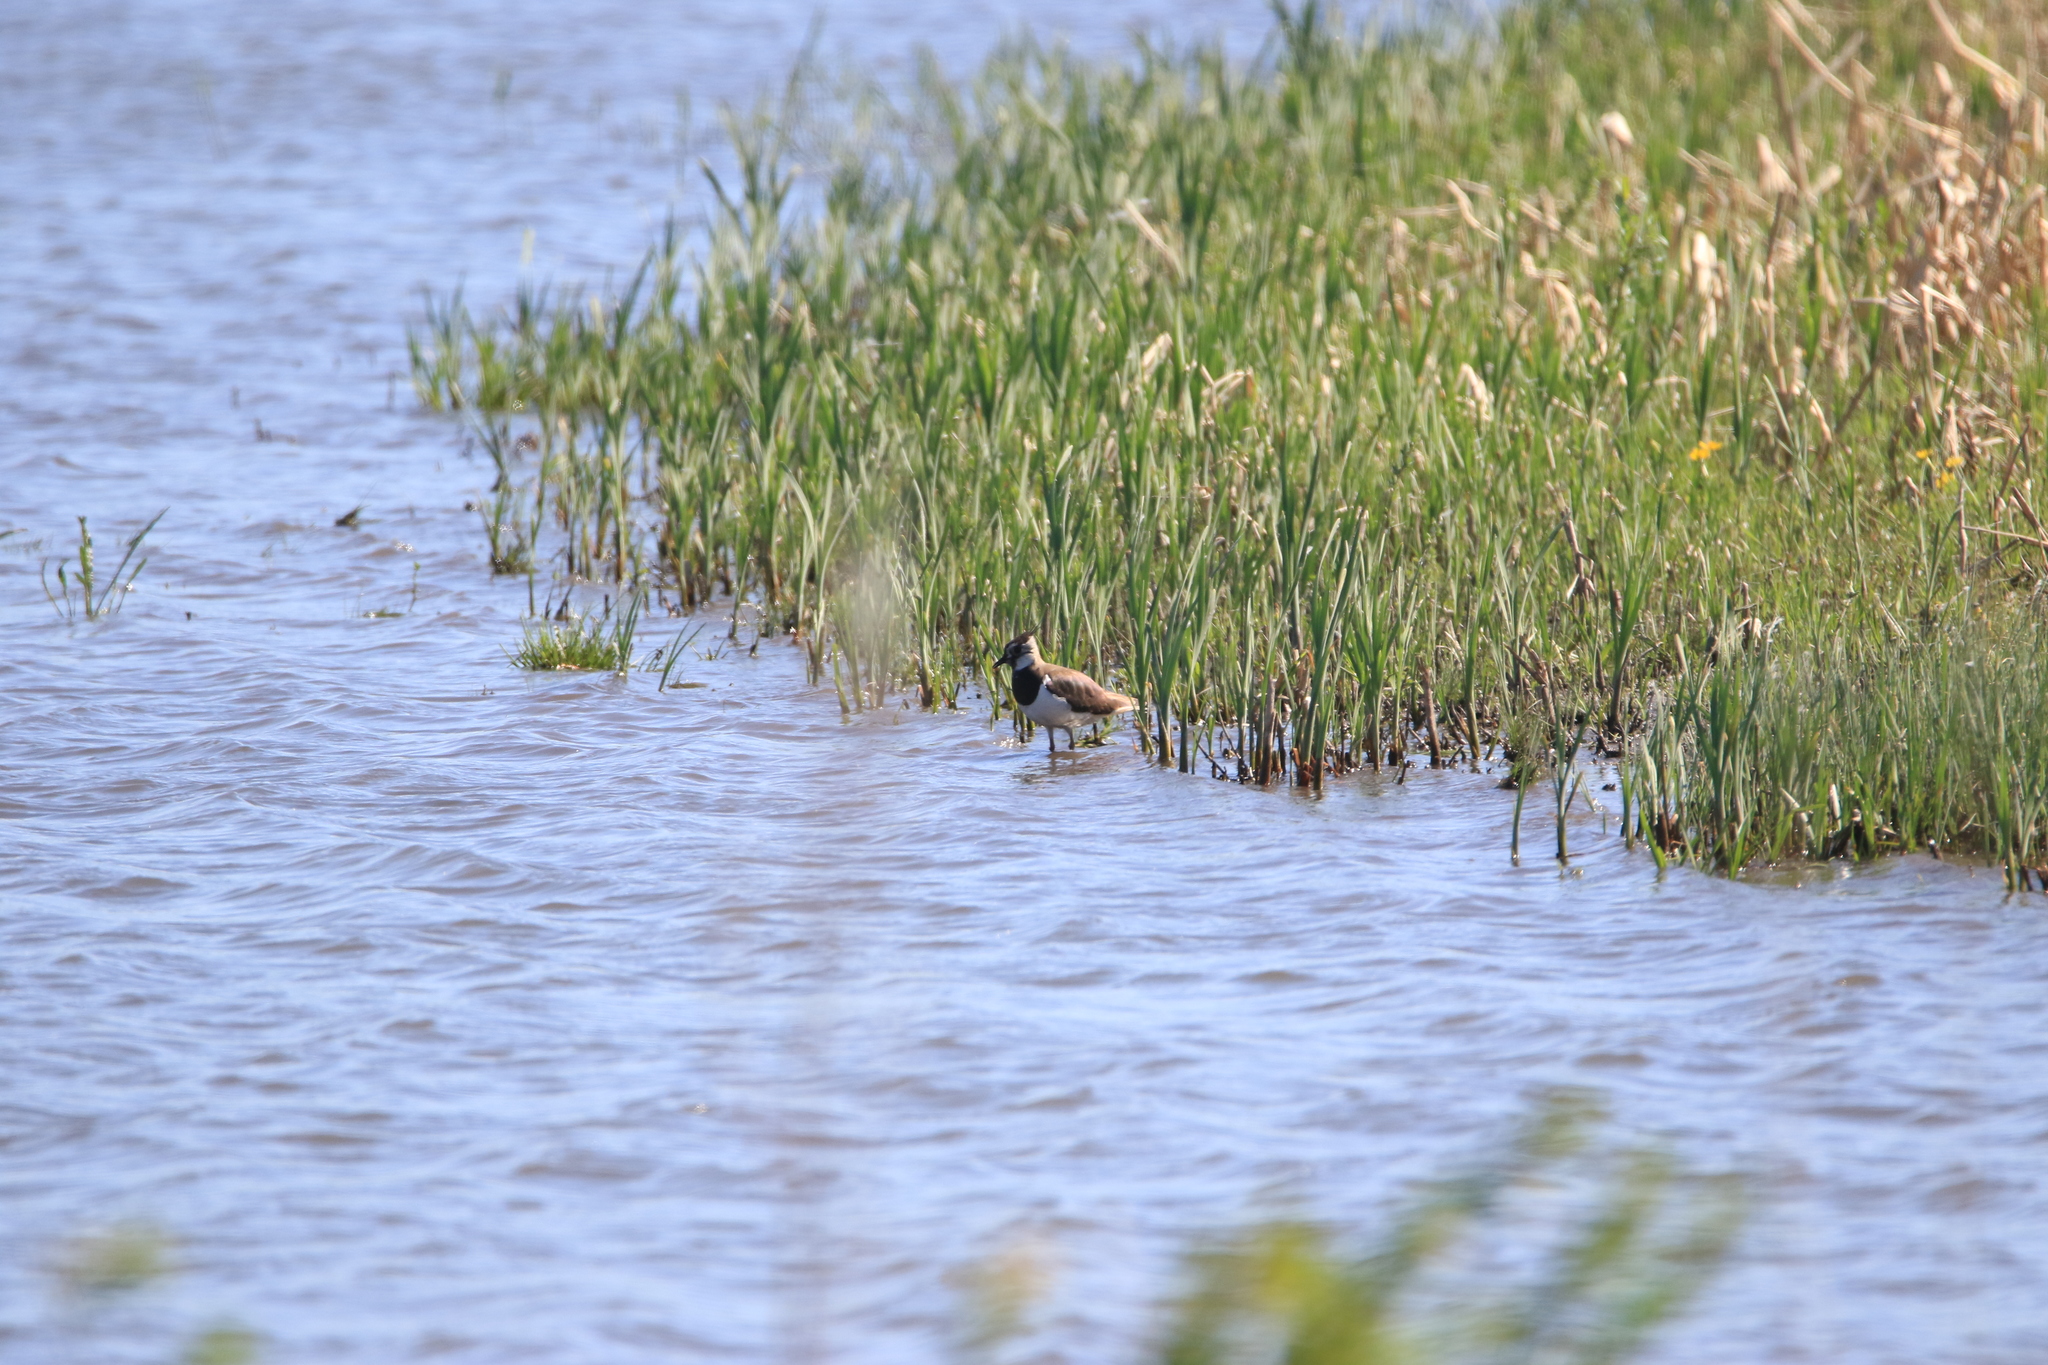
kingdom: Animalia
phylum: Chordata
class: Aves
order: Charadriiformes
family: Charadriidae
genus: Vanellus
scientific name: Vanellus vanellus
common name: Northern lapwing
